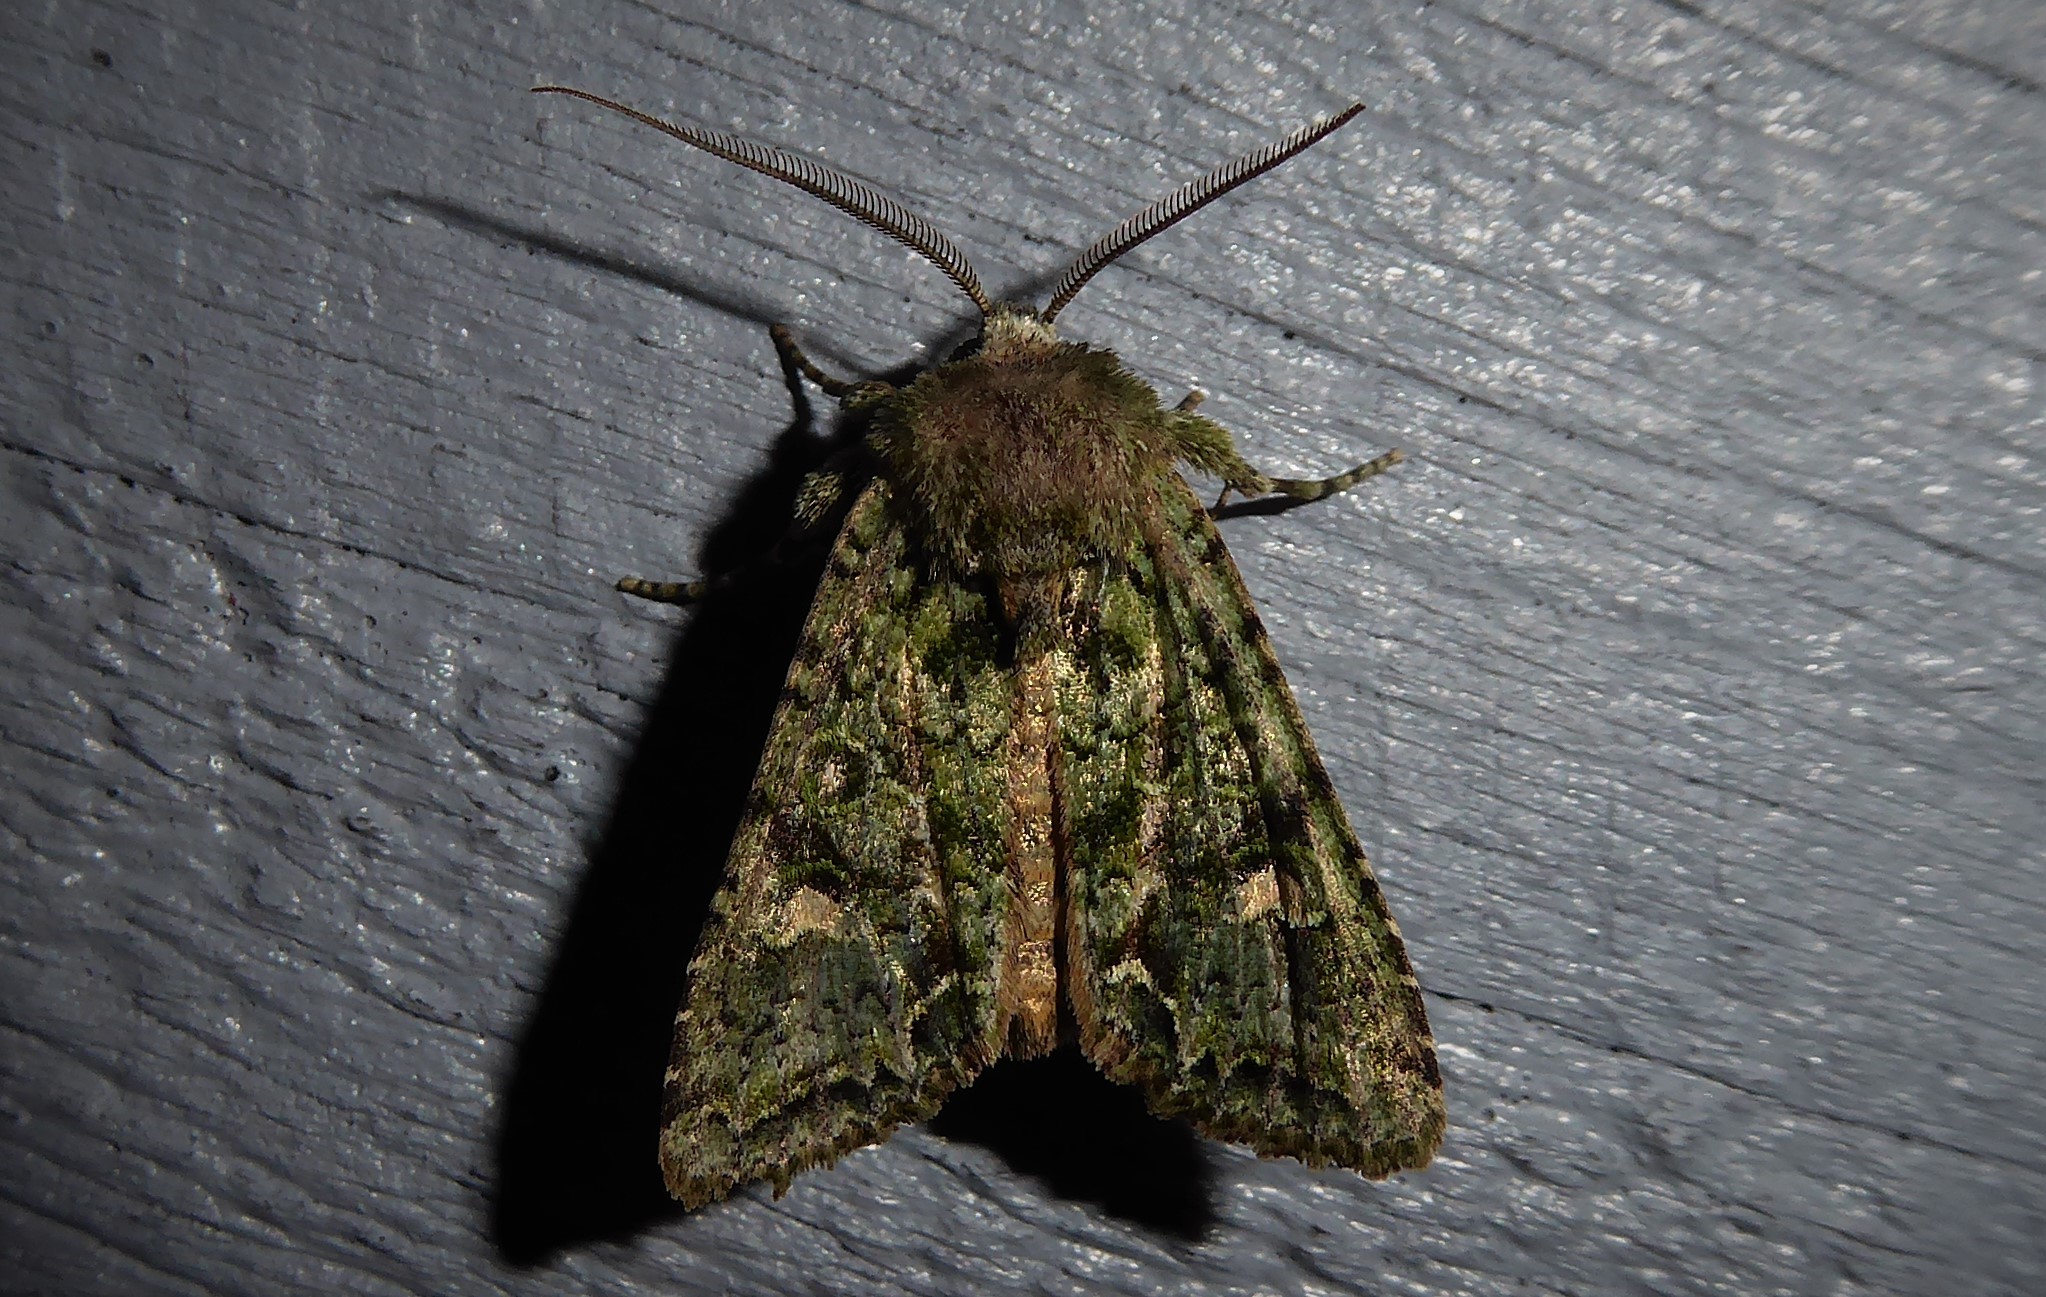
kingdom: Animalia
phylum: Arthropoda
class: Insecta
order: Lepidoptera
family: Noctuidae
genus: Ichneutica
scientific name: Ichneutica
